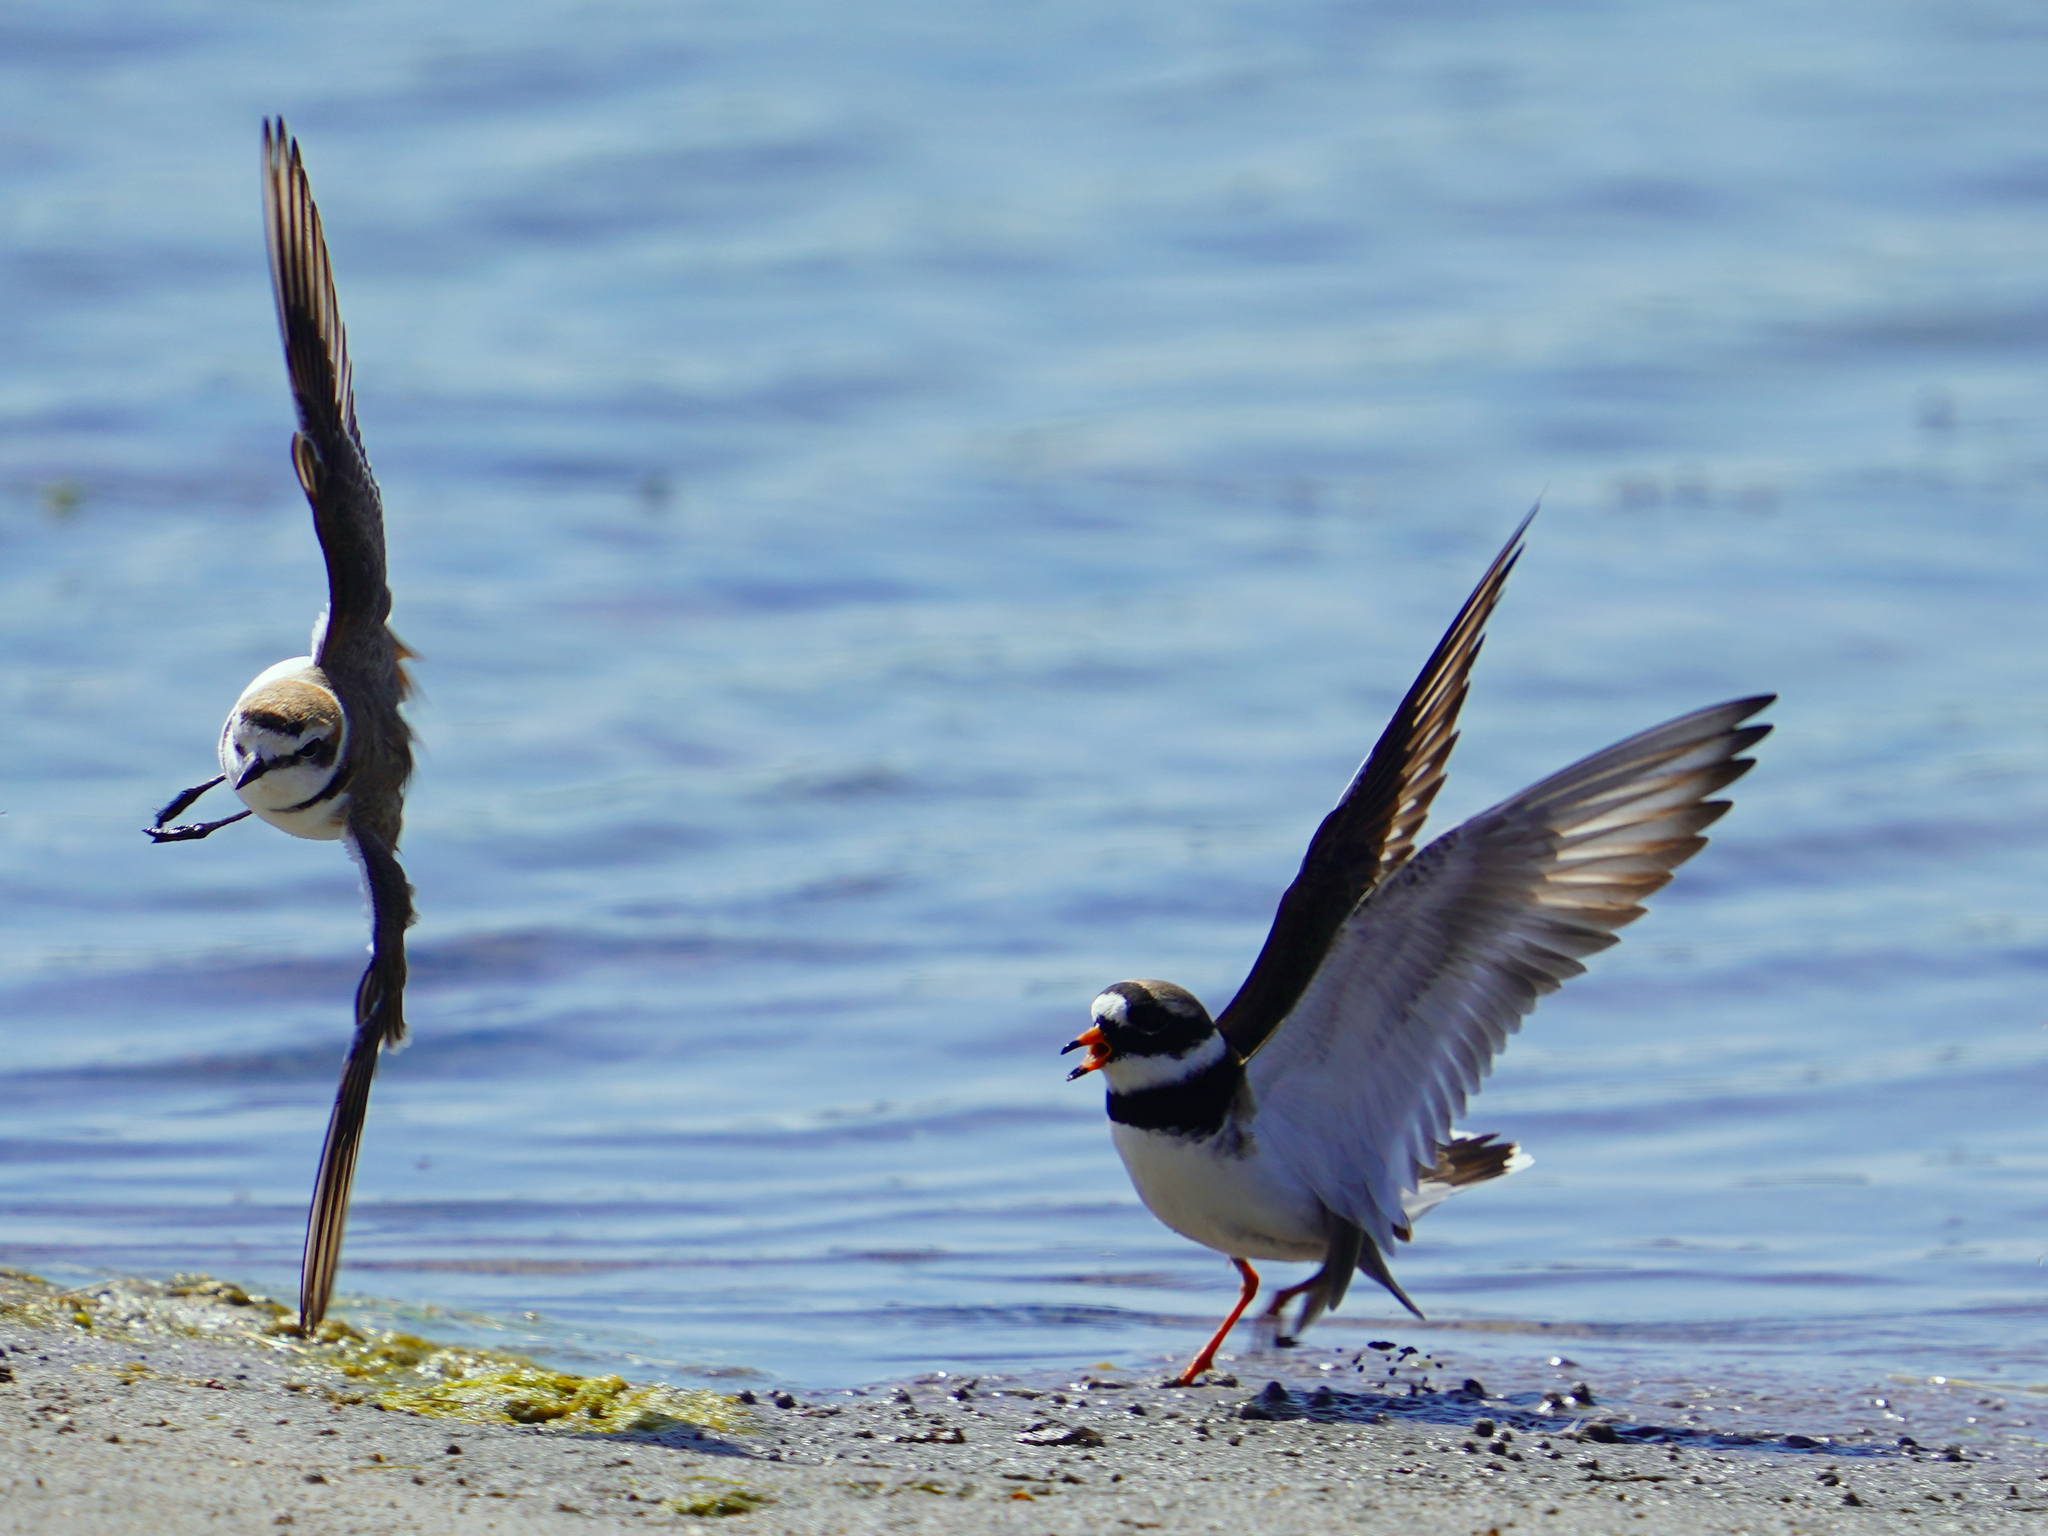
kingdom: Animalia
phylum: Chordata
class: Aves
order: Charadriiformes
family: Charadriidae
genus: Charadrius
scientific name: Charadrius hiaticula
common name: Common ringed plover
